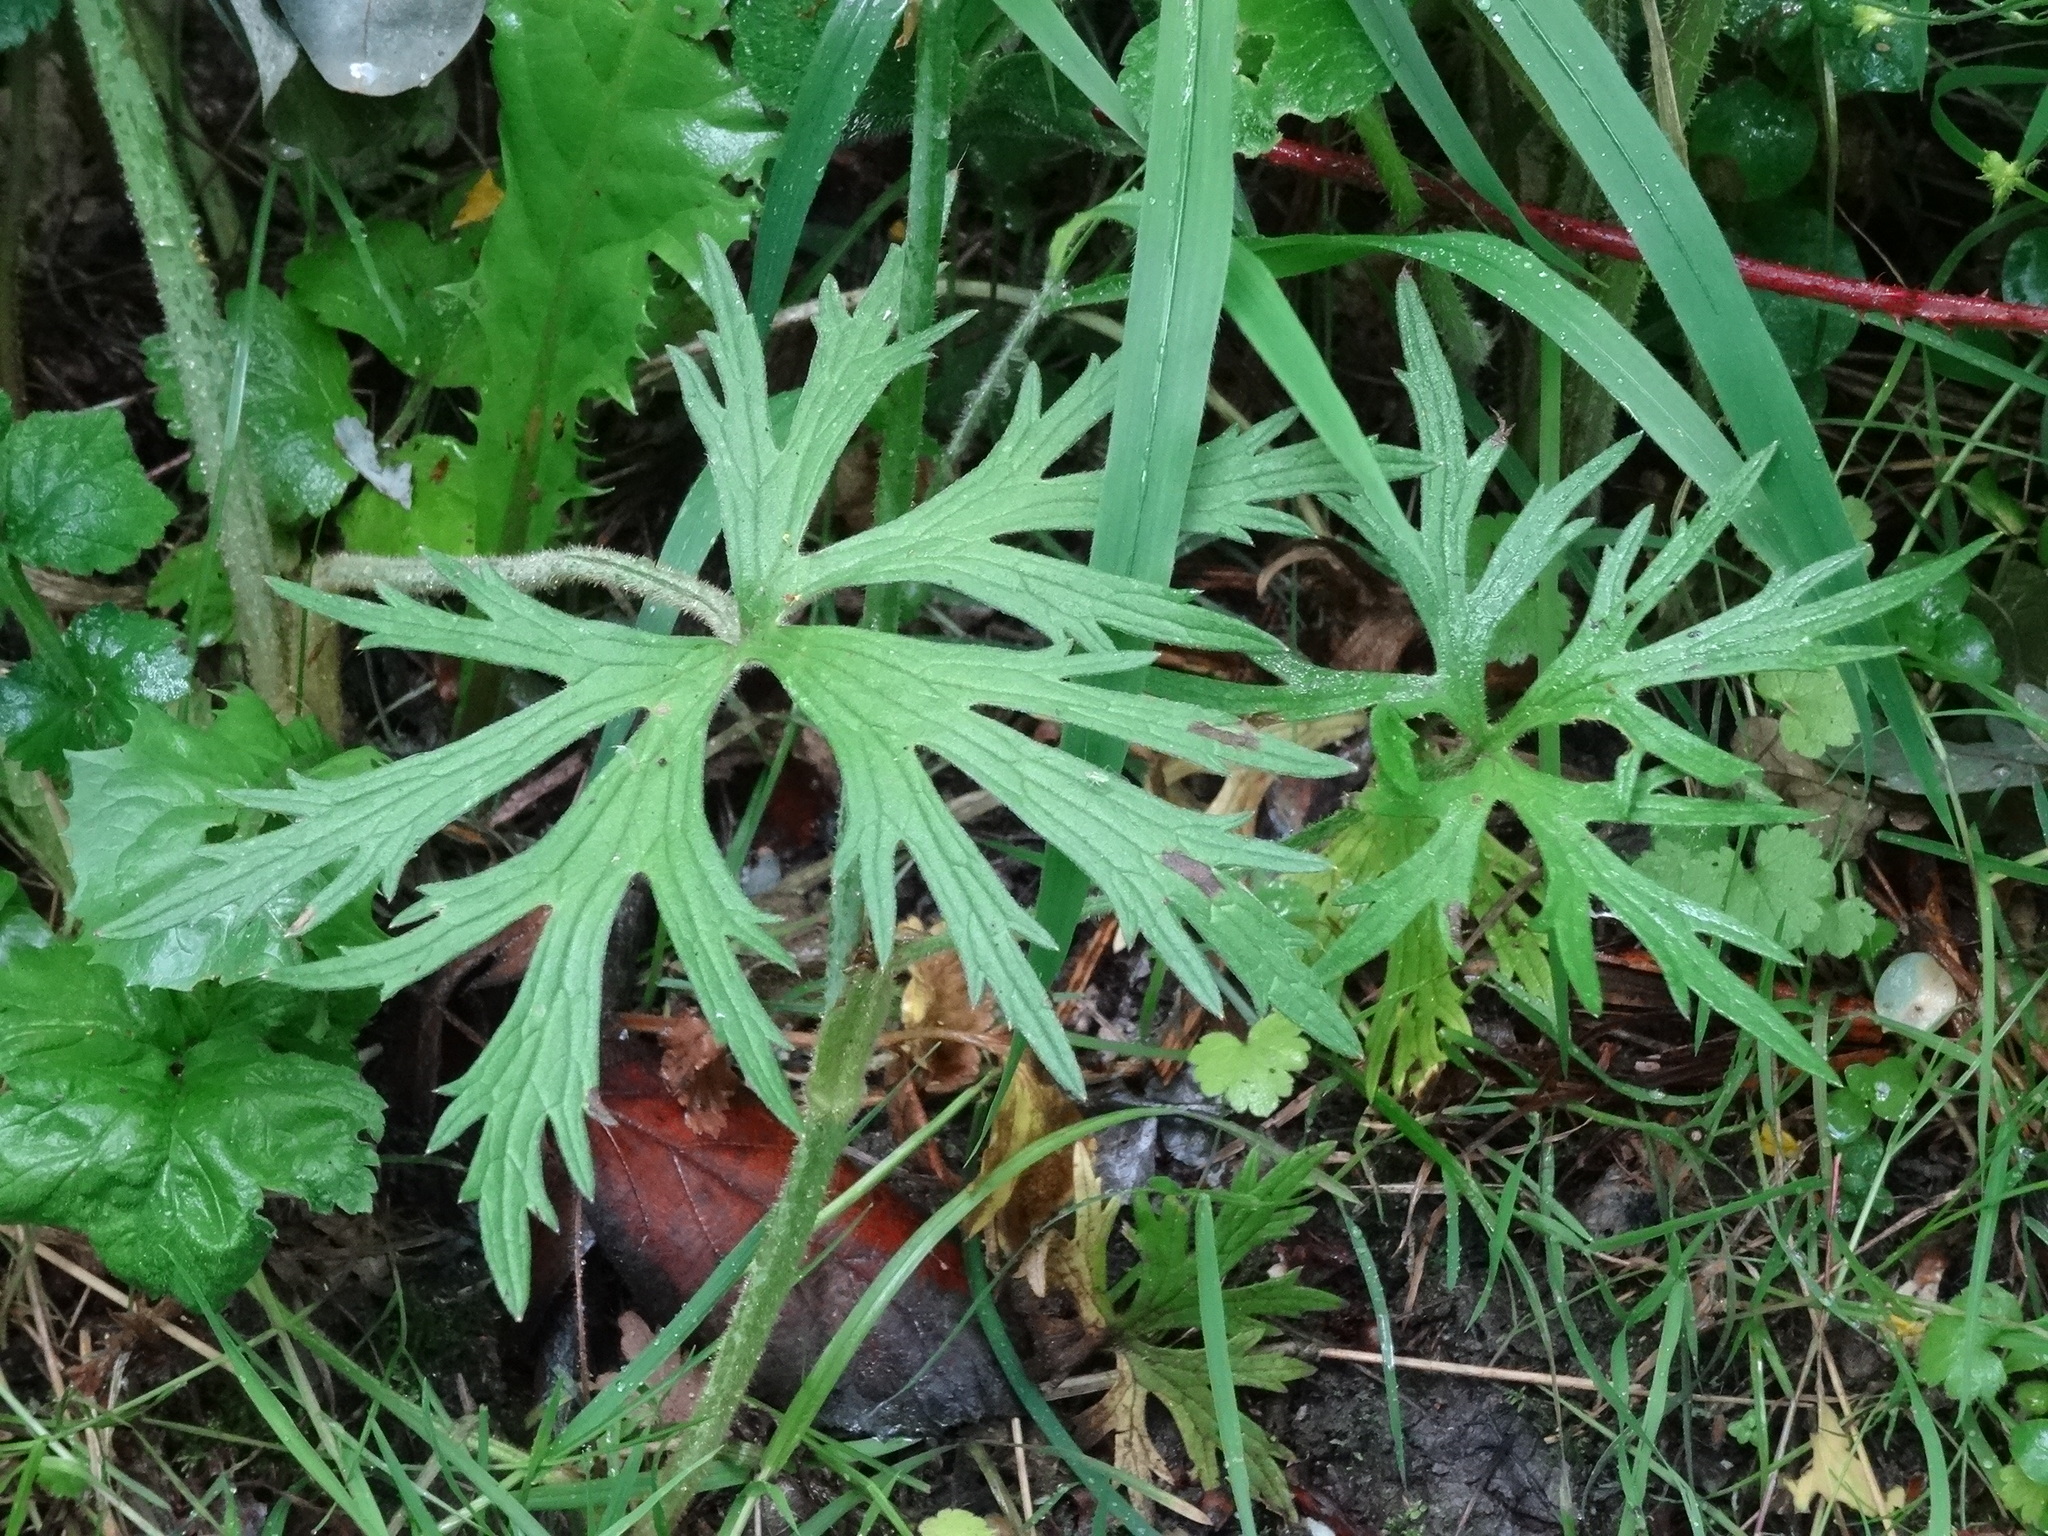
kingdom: Plantae
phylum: Tracheophyta
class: Magnoliopsida
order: Ranunculales
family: Ranunculaceae
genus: Ranunculus
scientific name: Ranunculus acris
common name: Meadow buttercup
